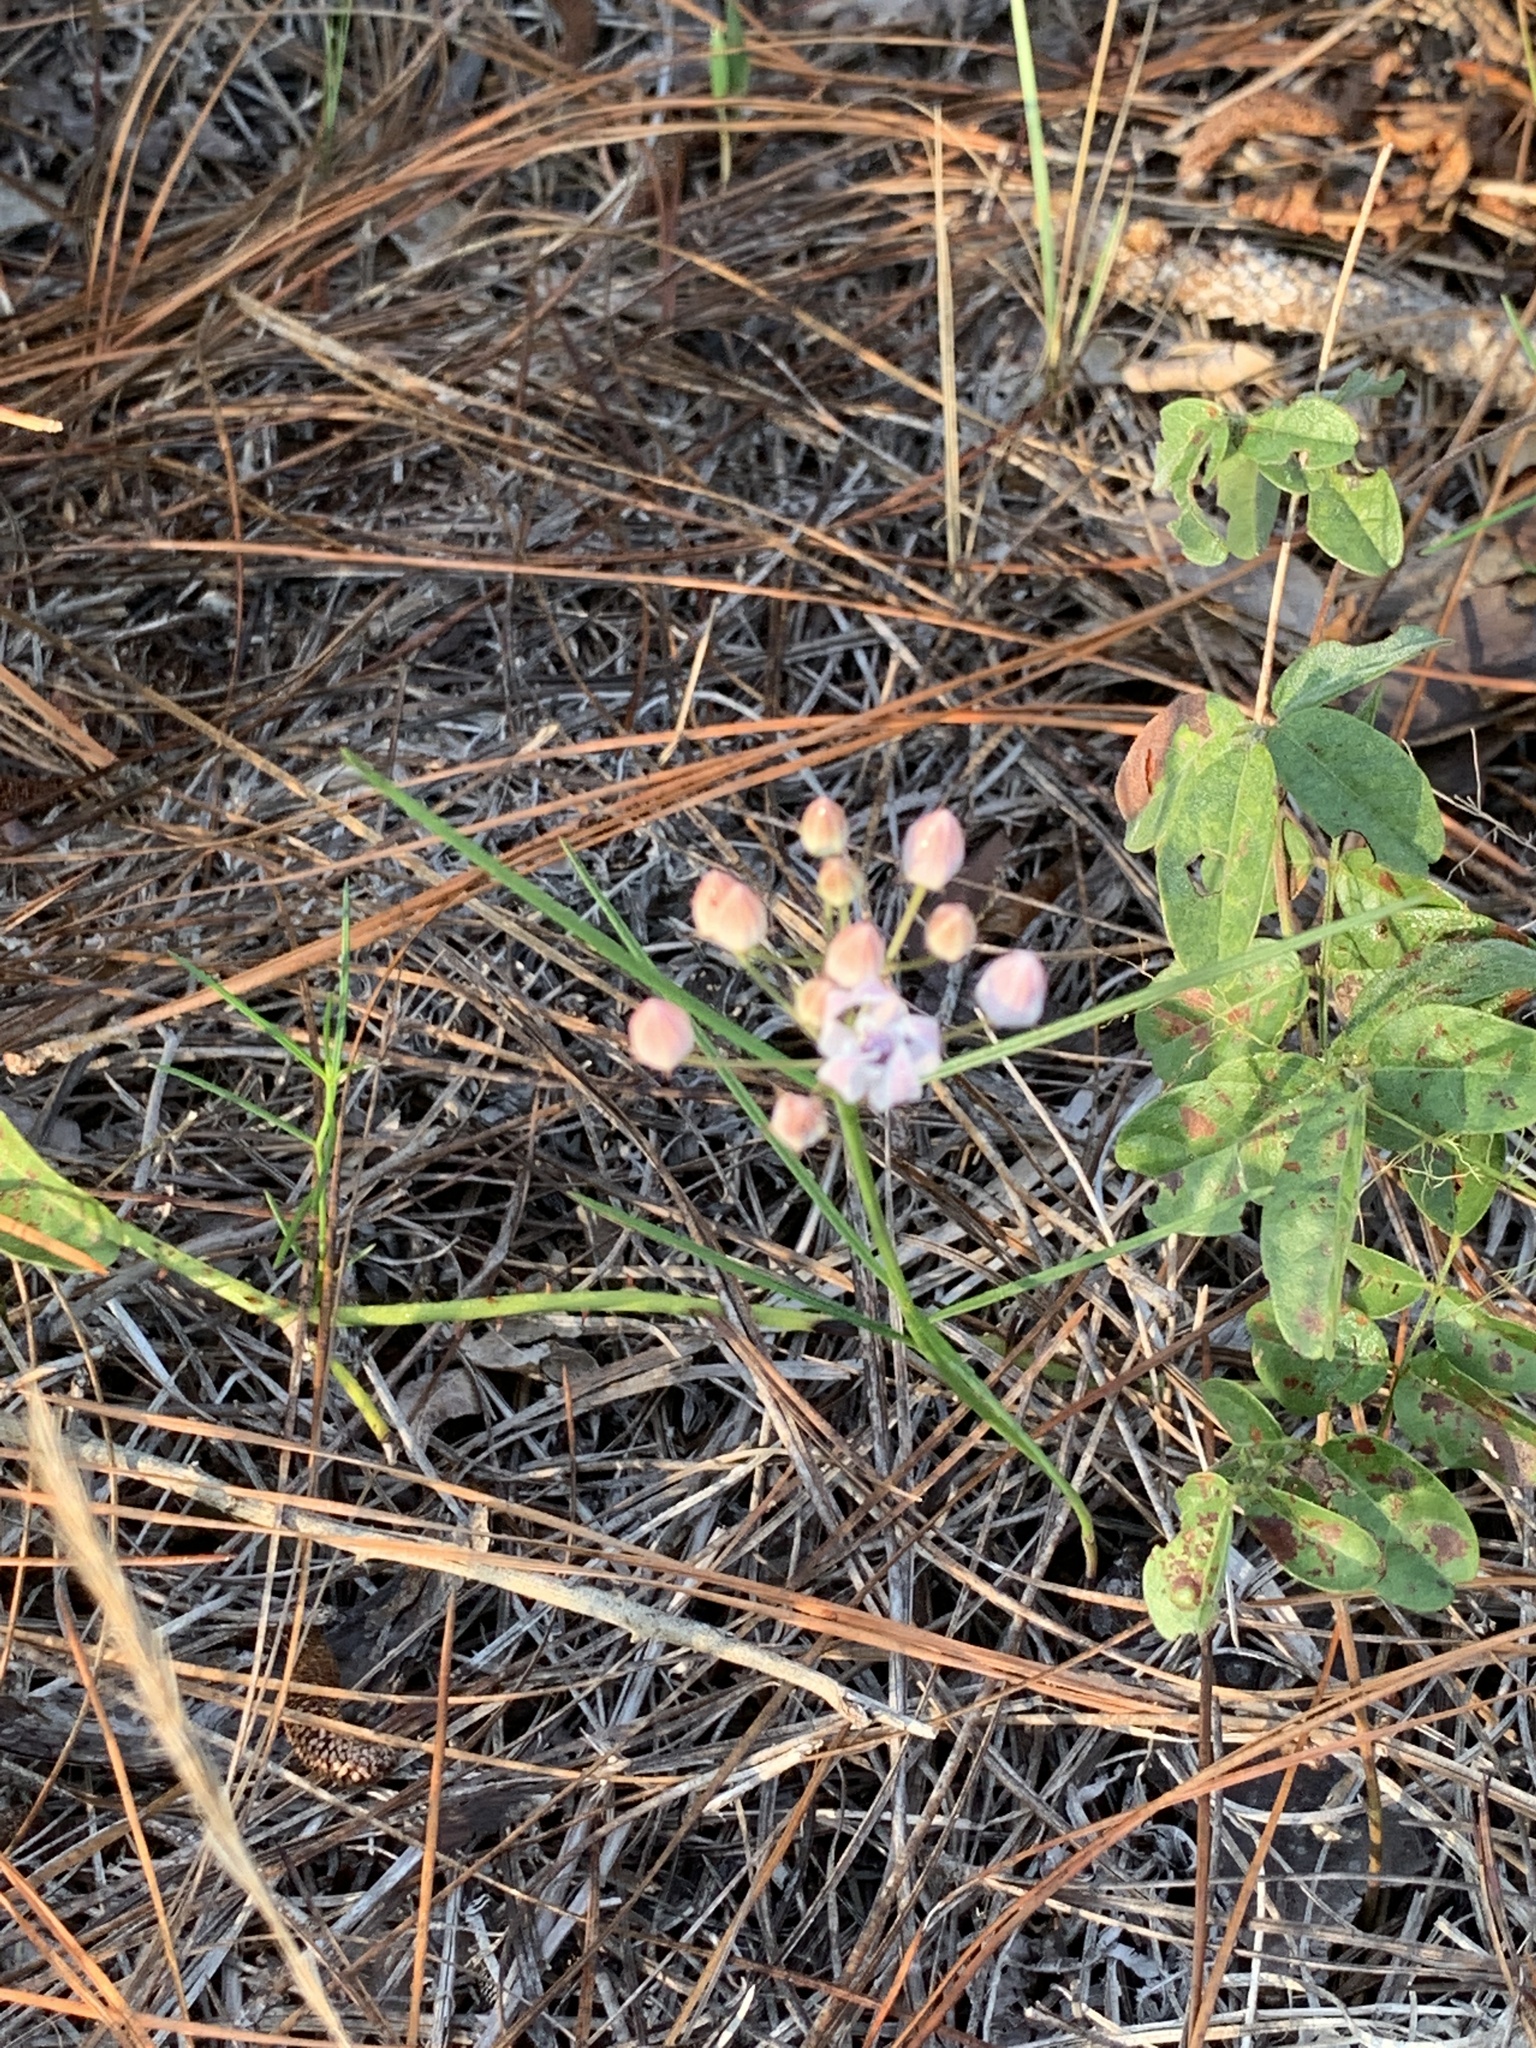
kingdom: Plantae
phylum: Tracheophyta
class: Magnoliopsida
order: Gentianales
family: Apocynaceae
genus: Asclepias
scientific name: Asclepias feayi
